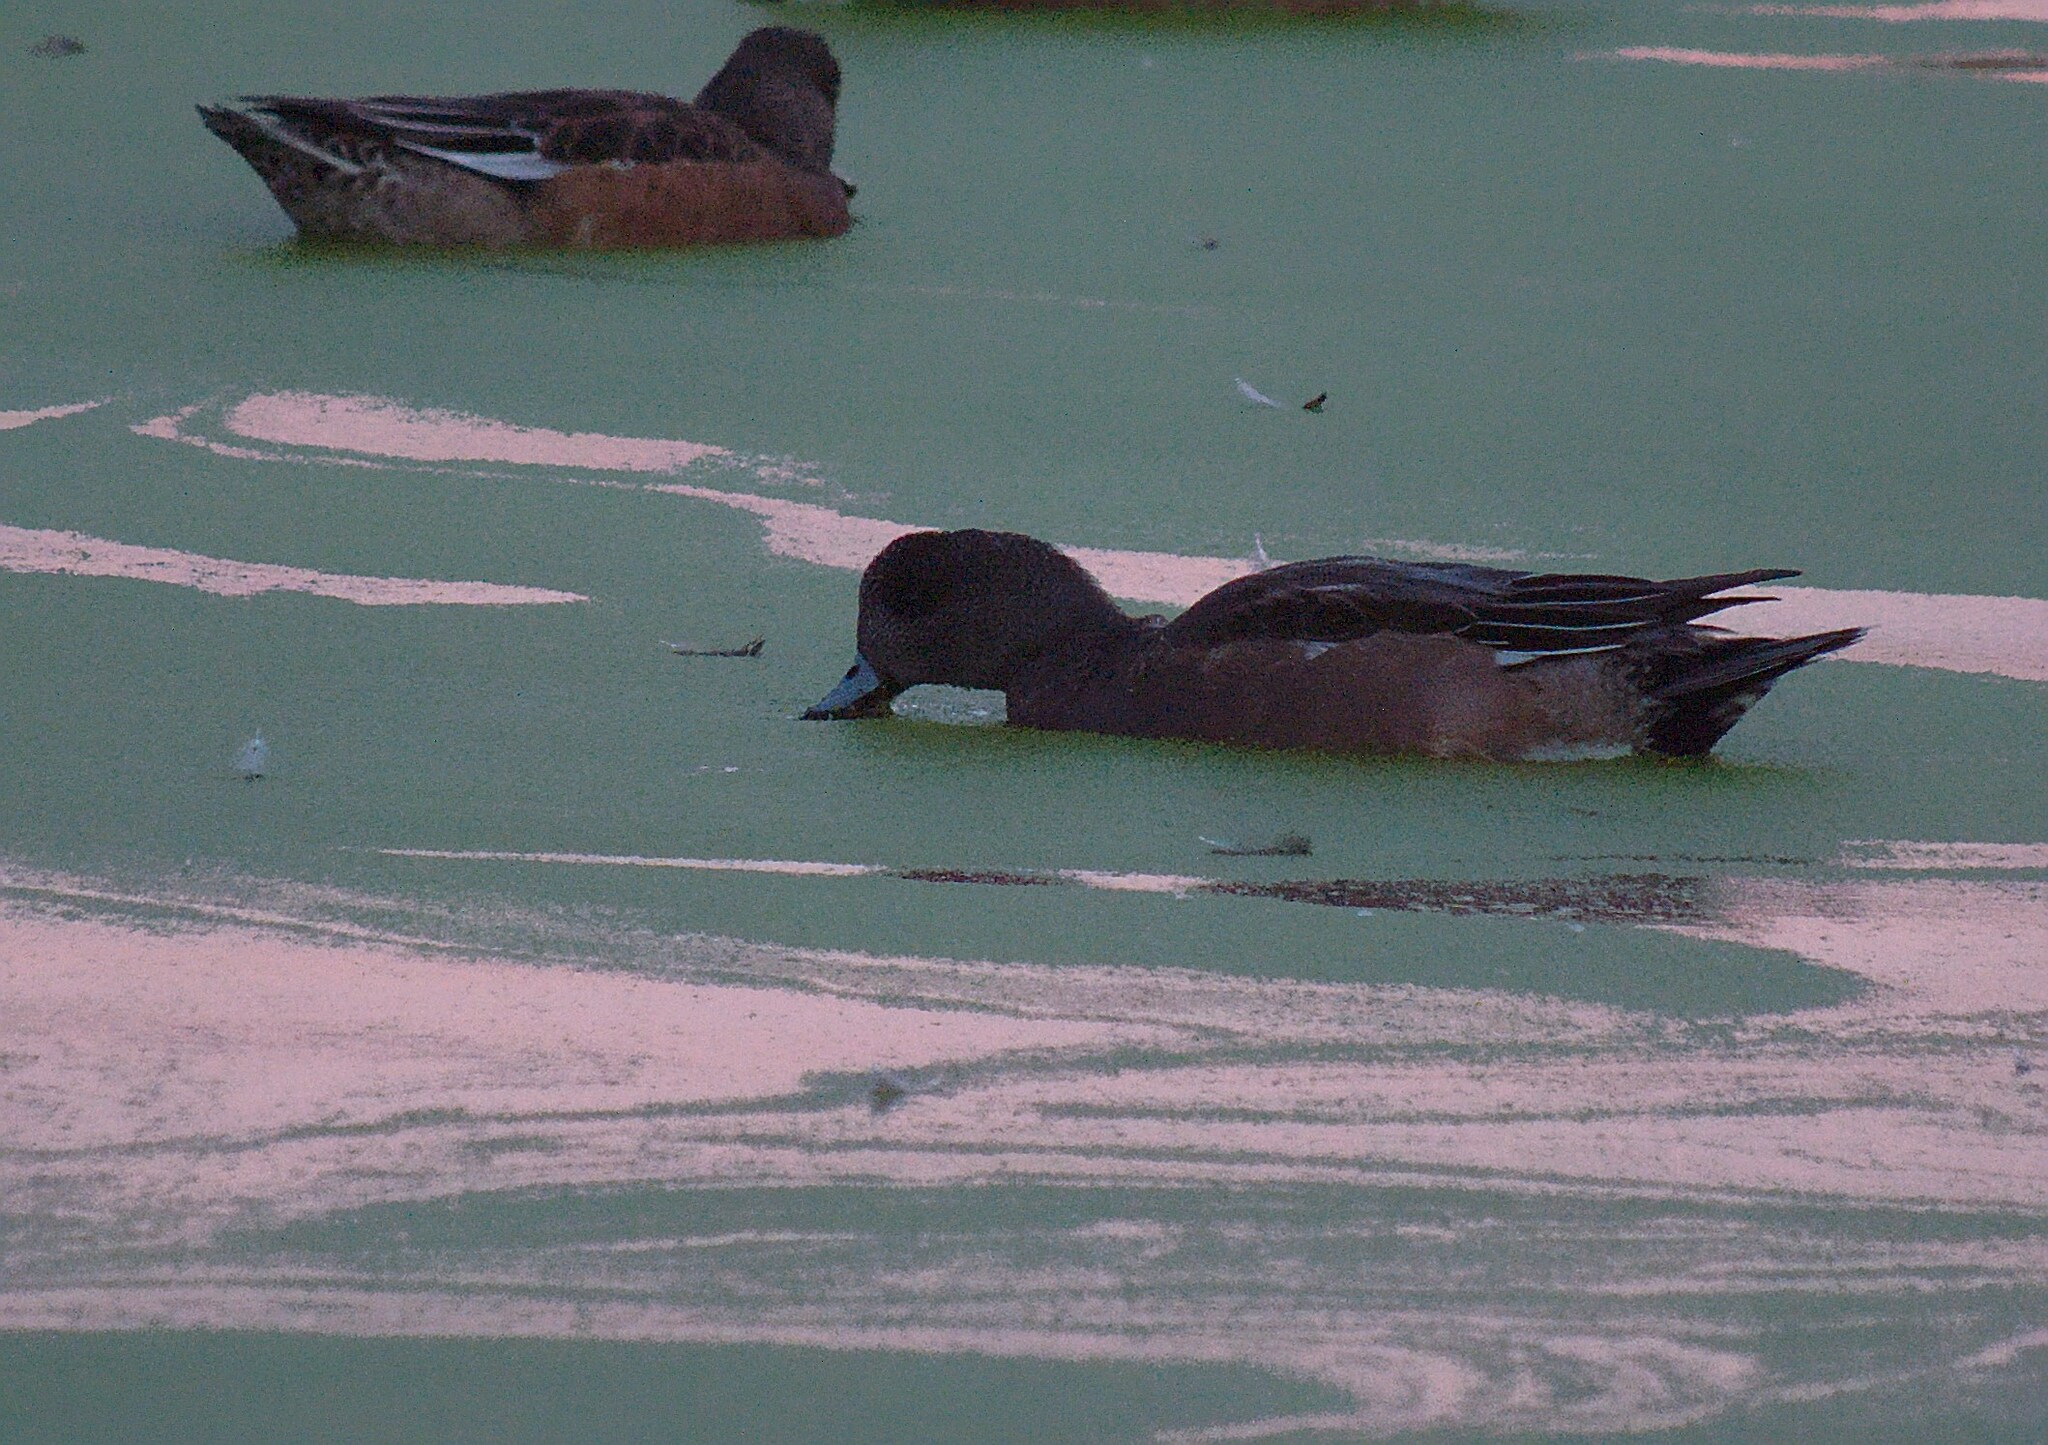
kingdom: Animalia
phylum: Chordata
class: Aves
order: Anseriformes
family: Anatidae
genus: Mareca
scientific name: Mareca americana
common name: American wigeon
